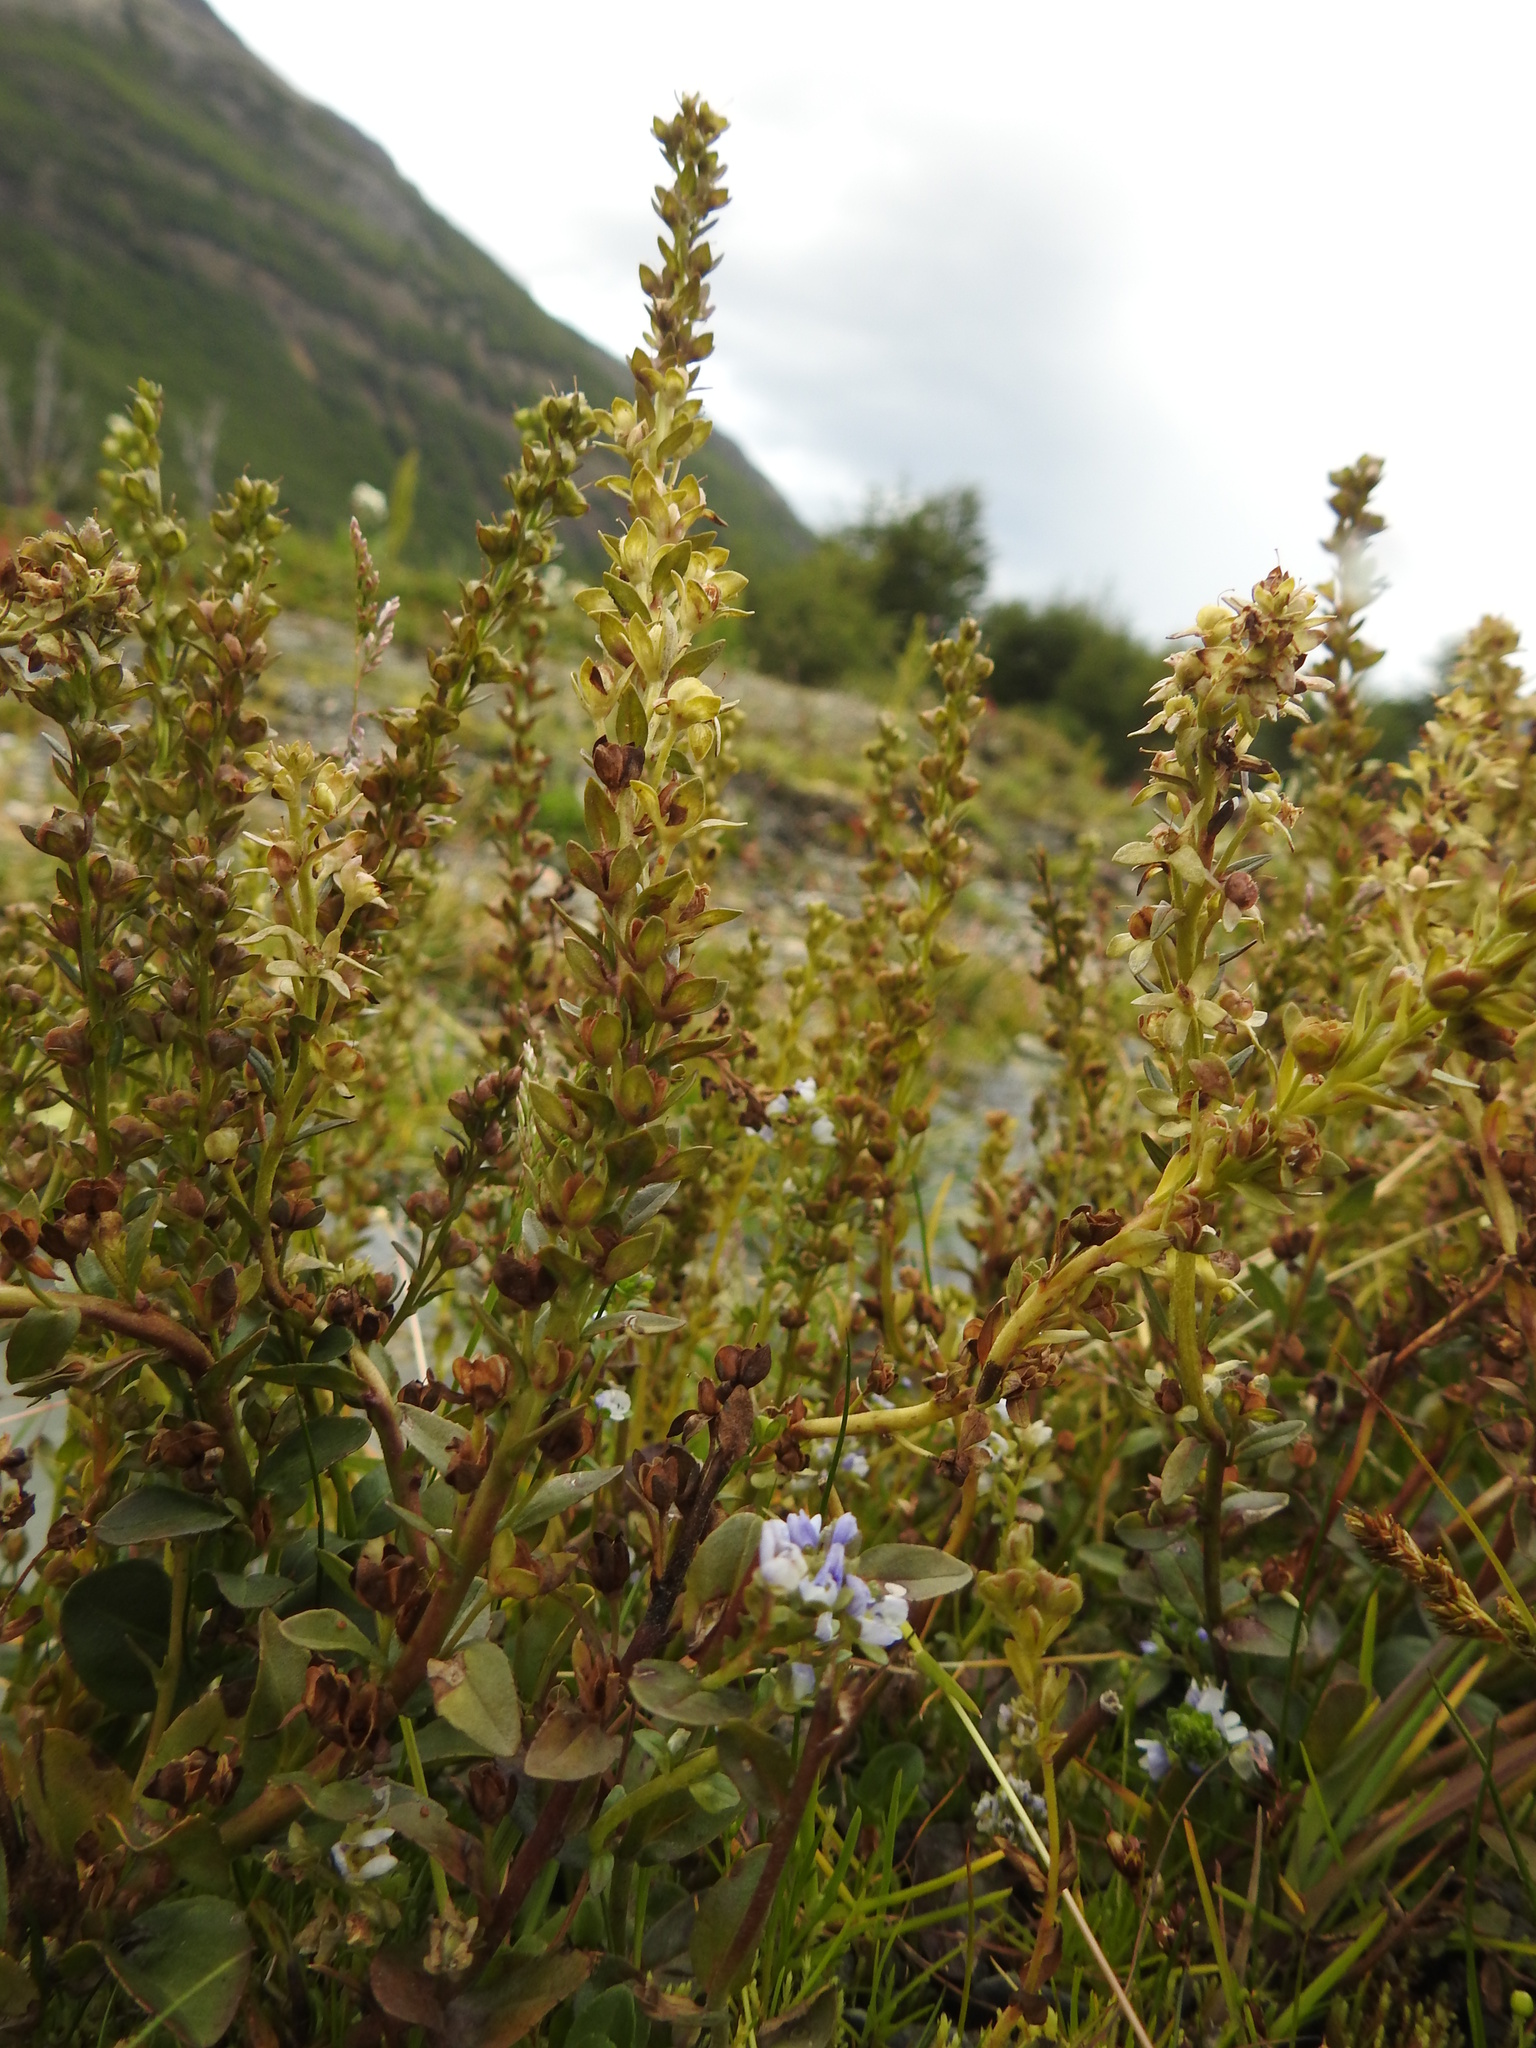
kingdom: Plantae
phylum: Tracheophyta
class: Magnoliopsida
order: Lamiales
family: Plantaginaceae
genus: Veronica
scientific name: Veronica serpyllifolia
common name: Thyme-leaved speedwell
